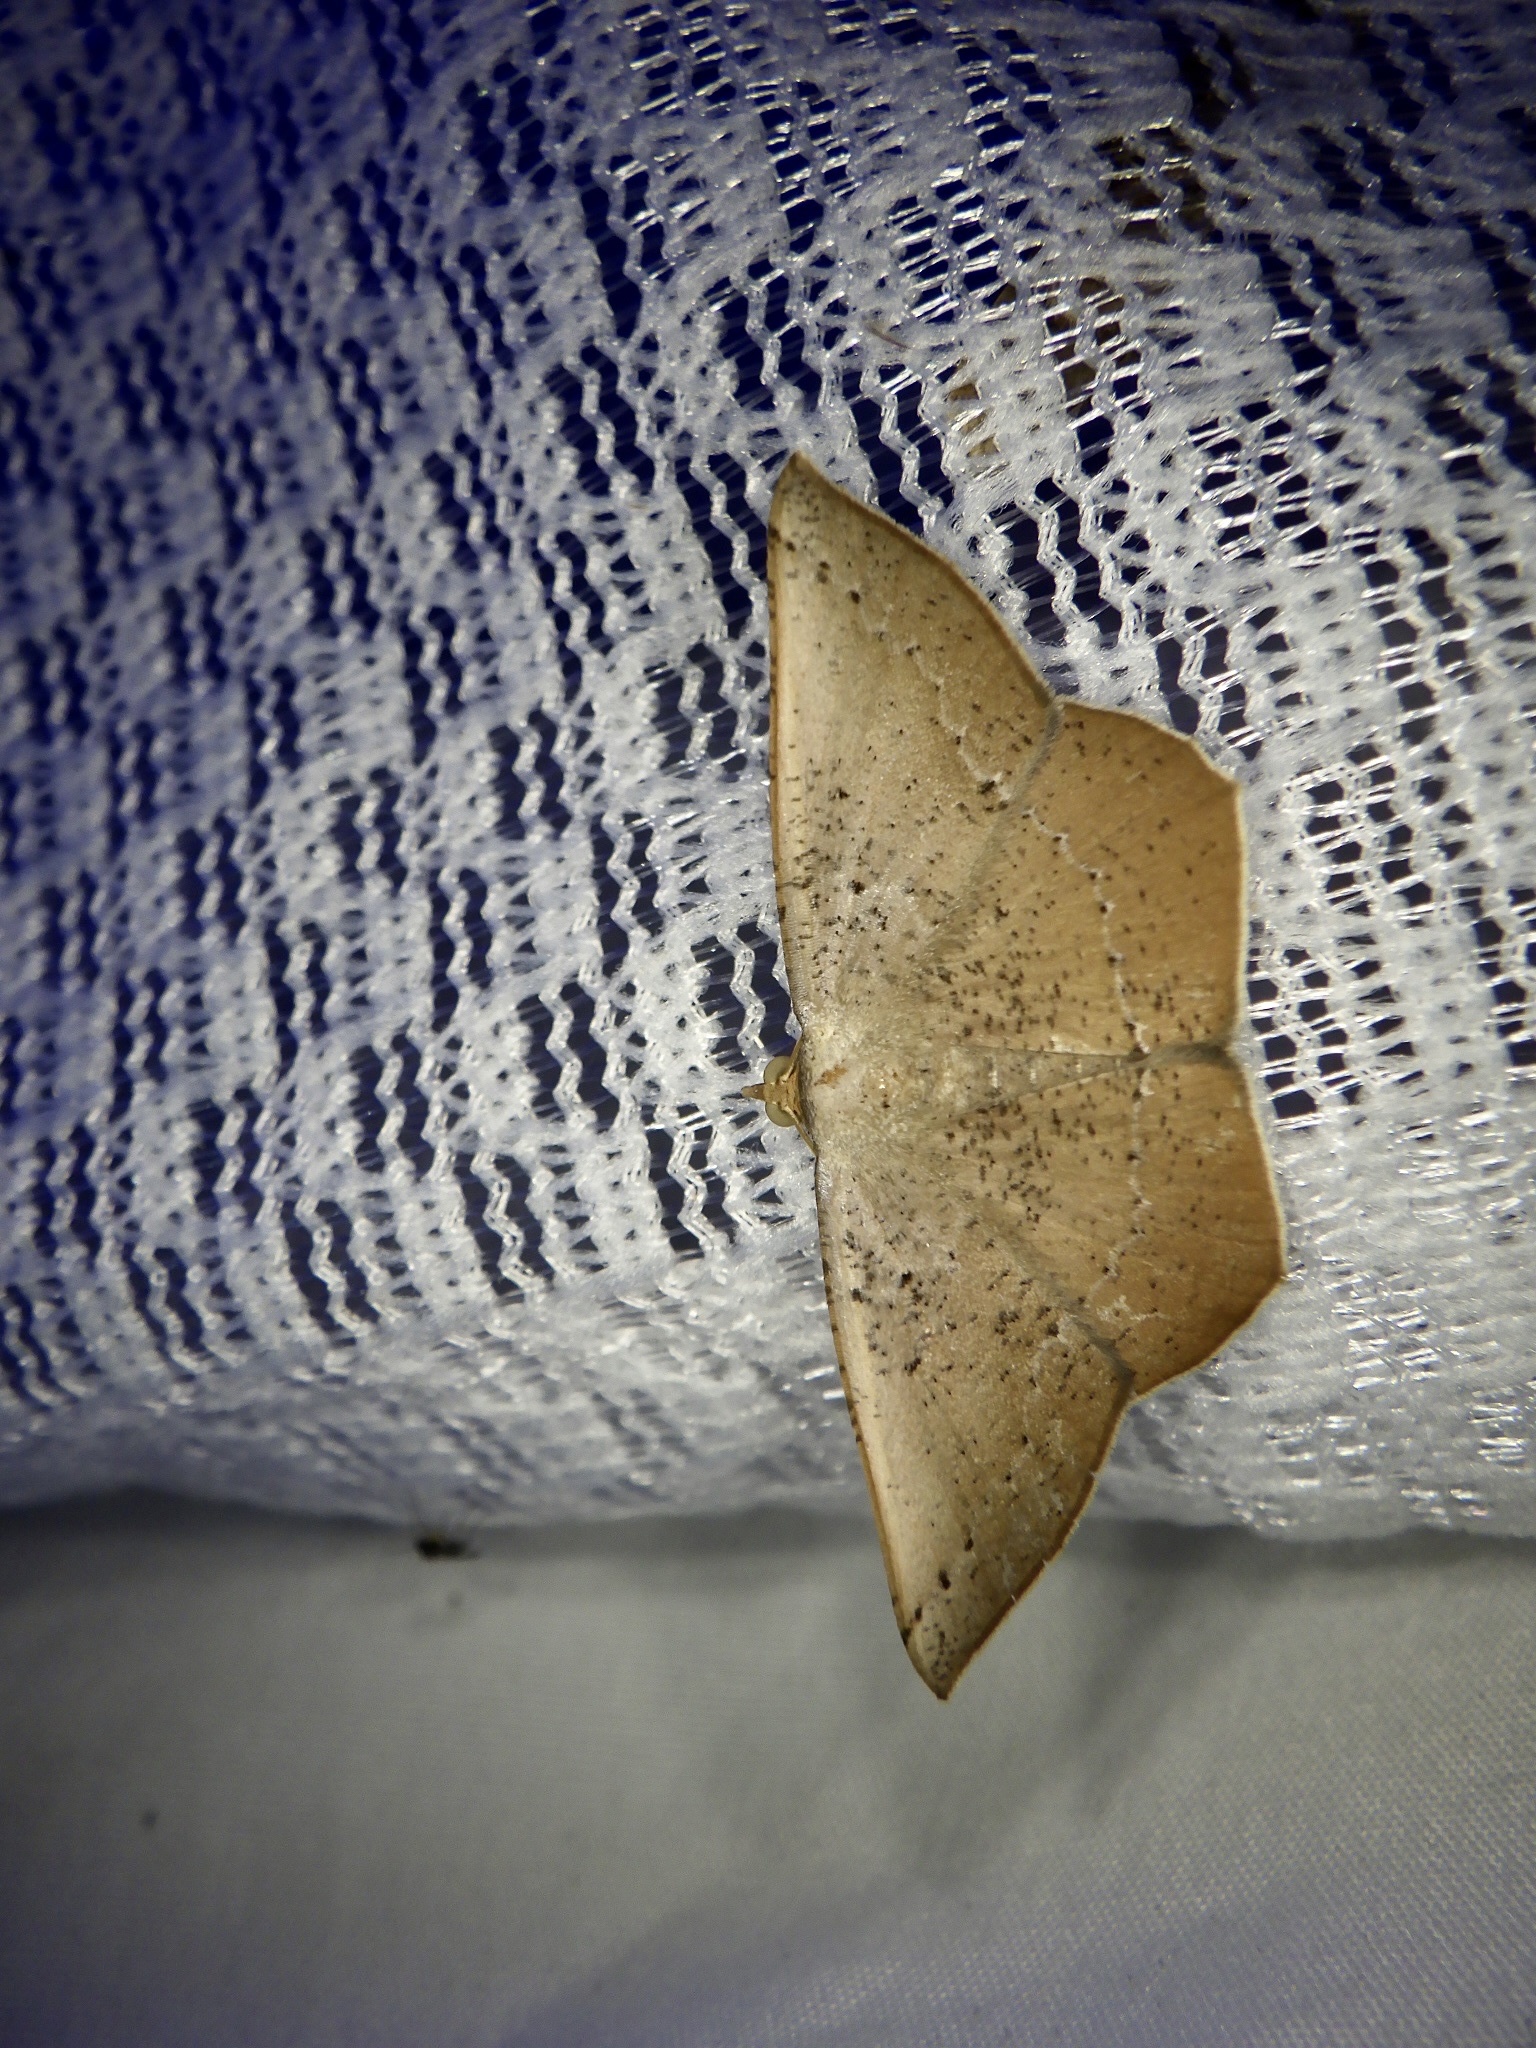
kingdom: Animalia
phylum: Arthropoda
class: Insecta
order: Lepidoptera
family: Geometridae
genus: Plesiomorpha
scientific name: Plesiomorpha punctilinearia
